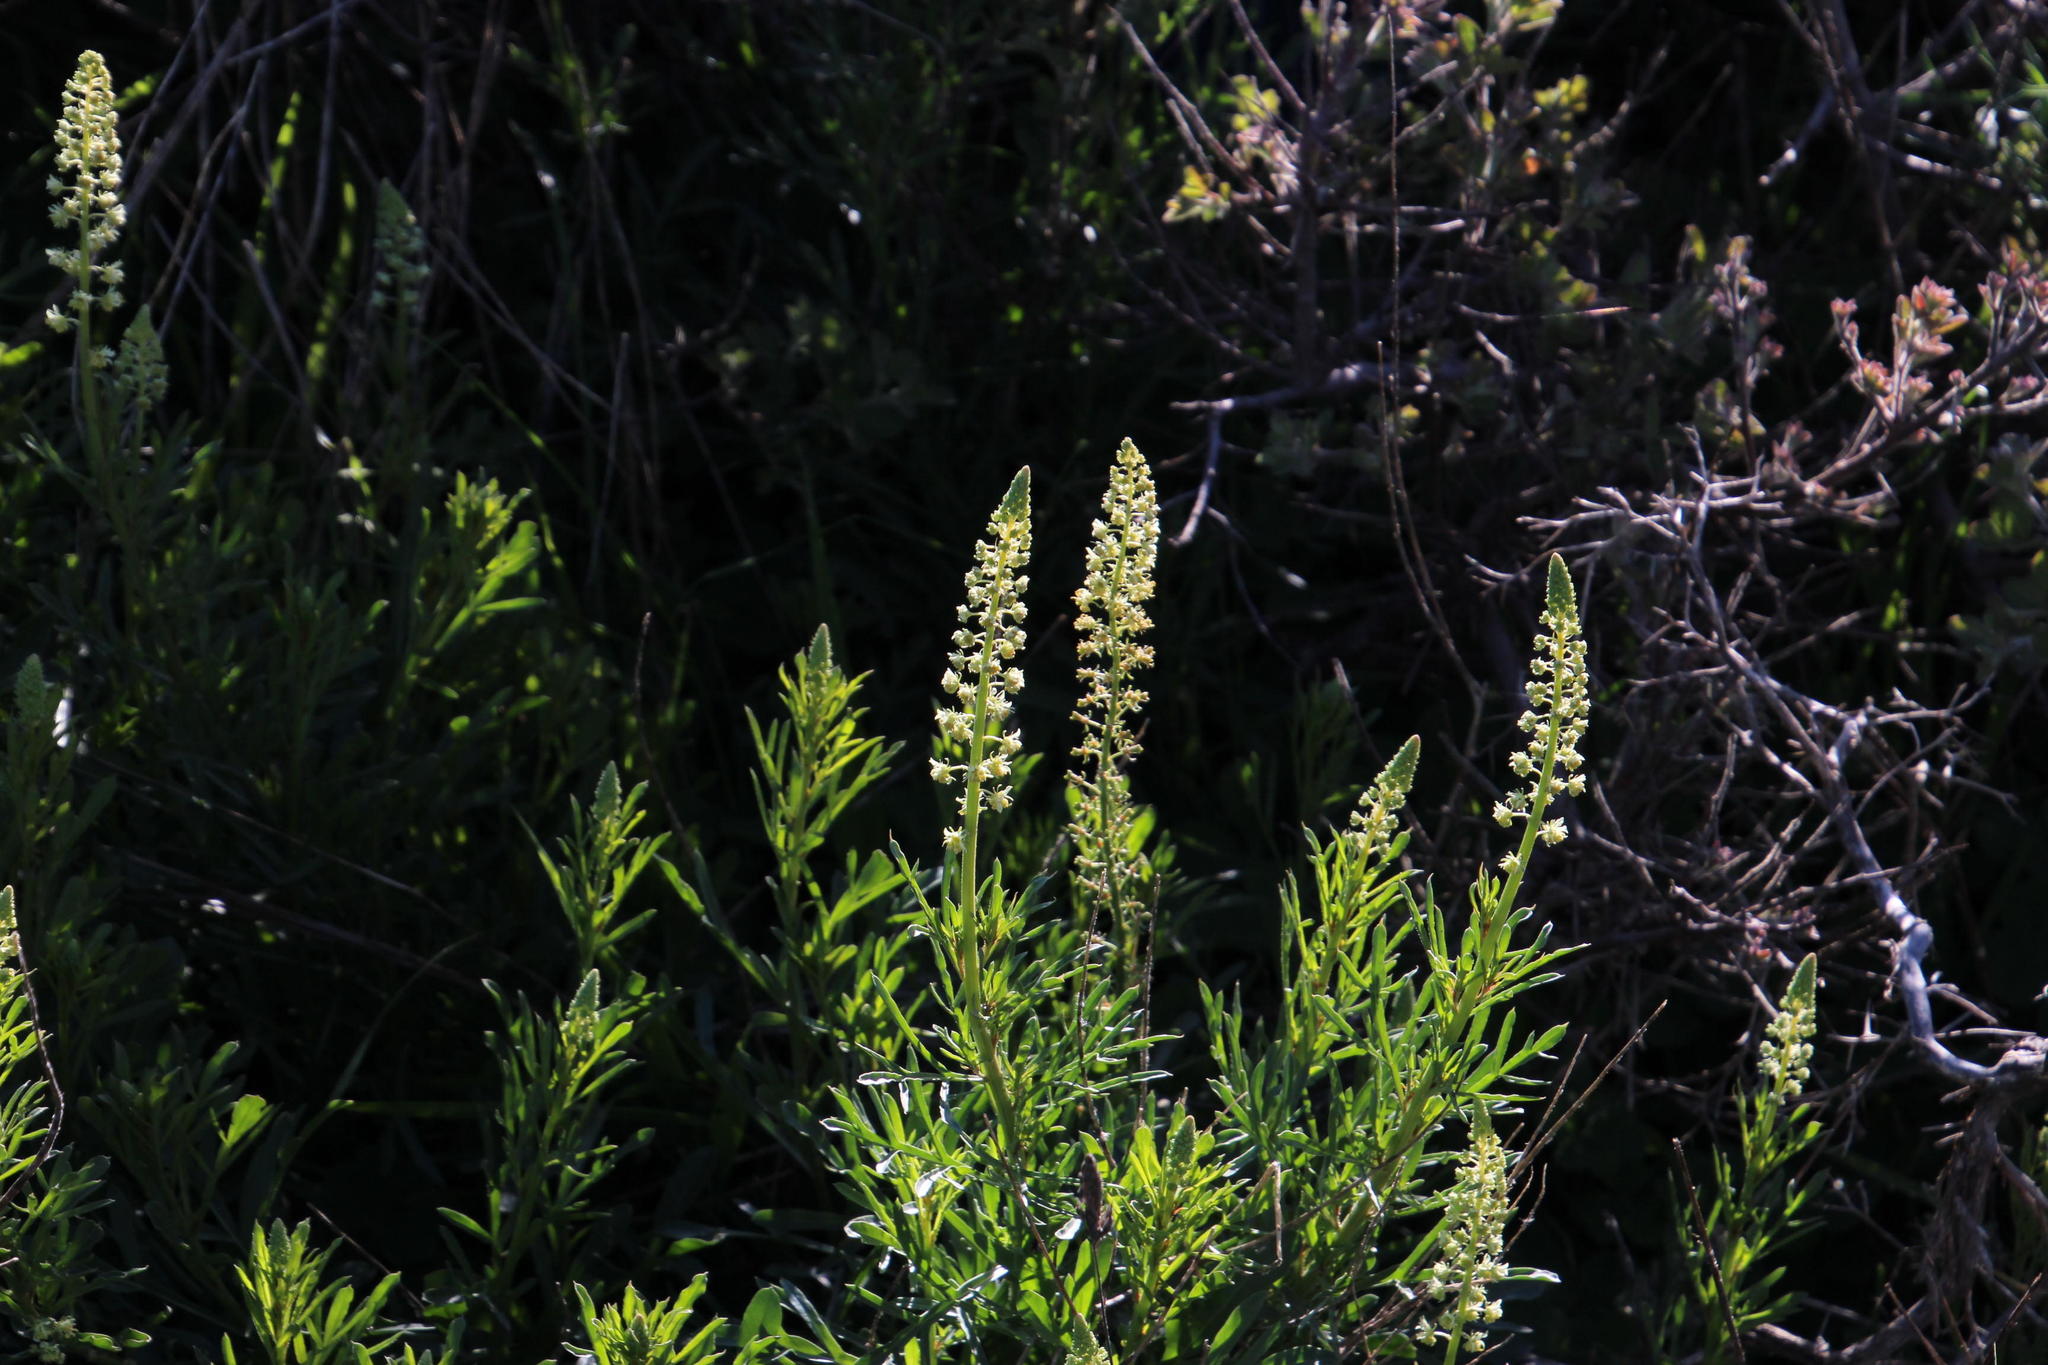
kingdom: Plantae
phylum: Tracheophyta
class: Magnoliopsida
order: Brassicales
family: Resedaceae
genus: Reseda
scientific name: Reseda lutea
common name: Wild mignonette
